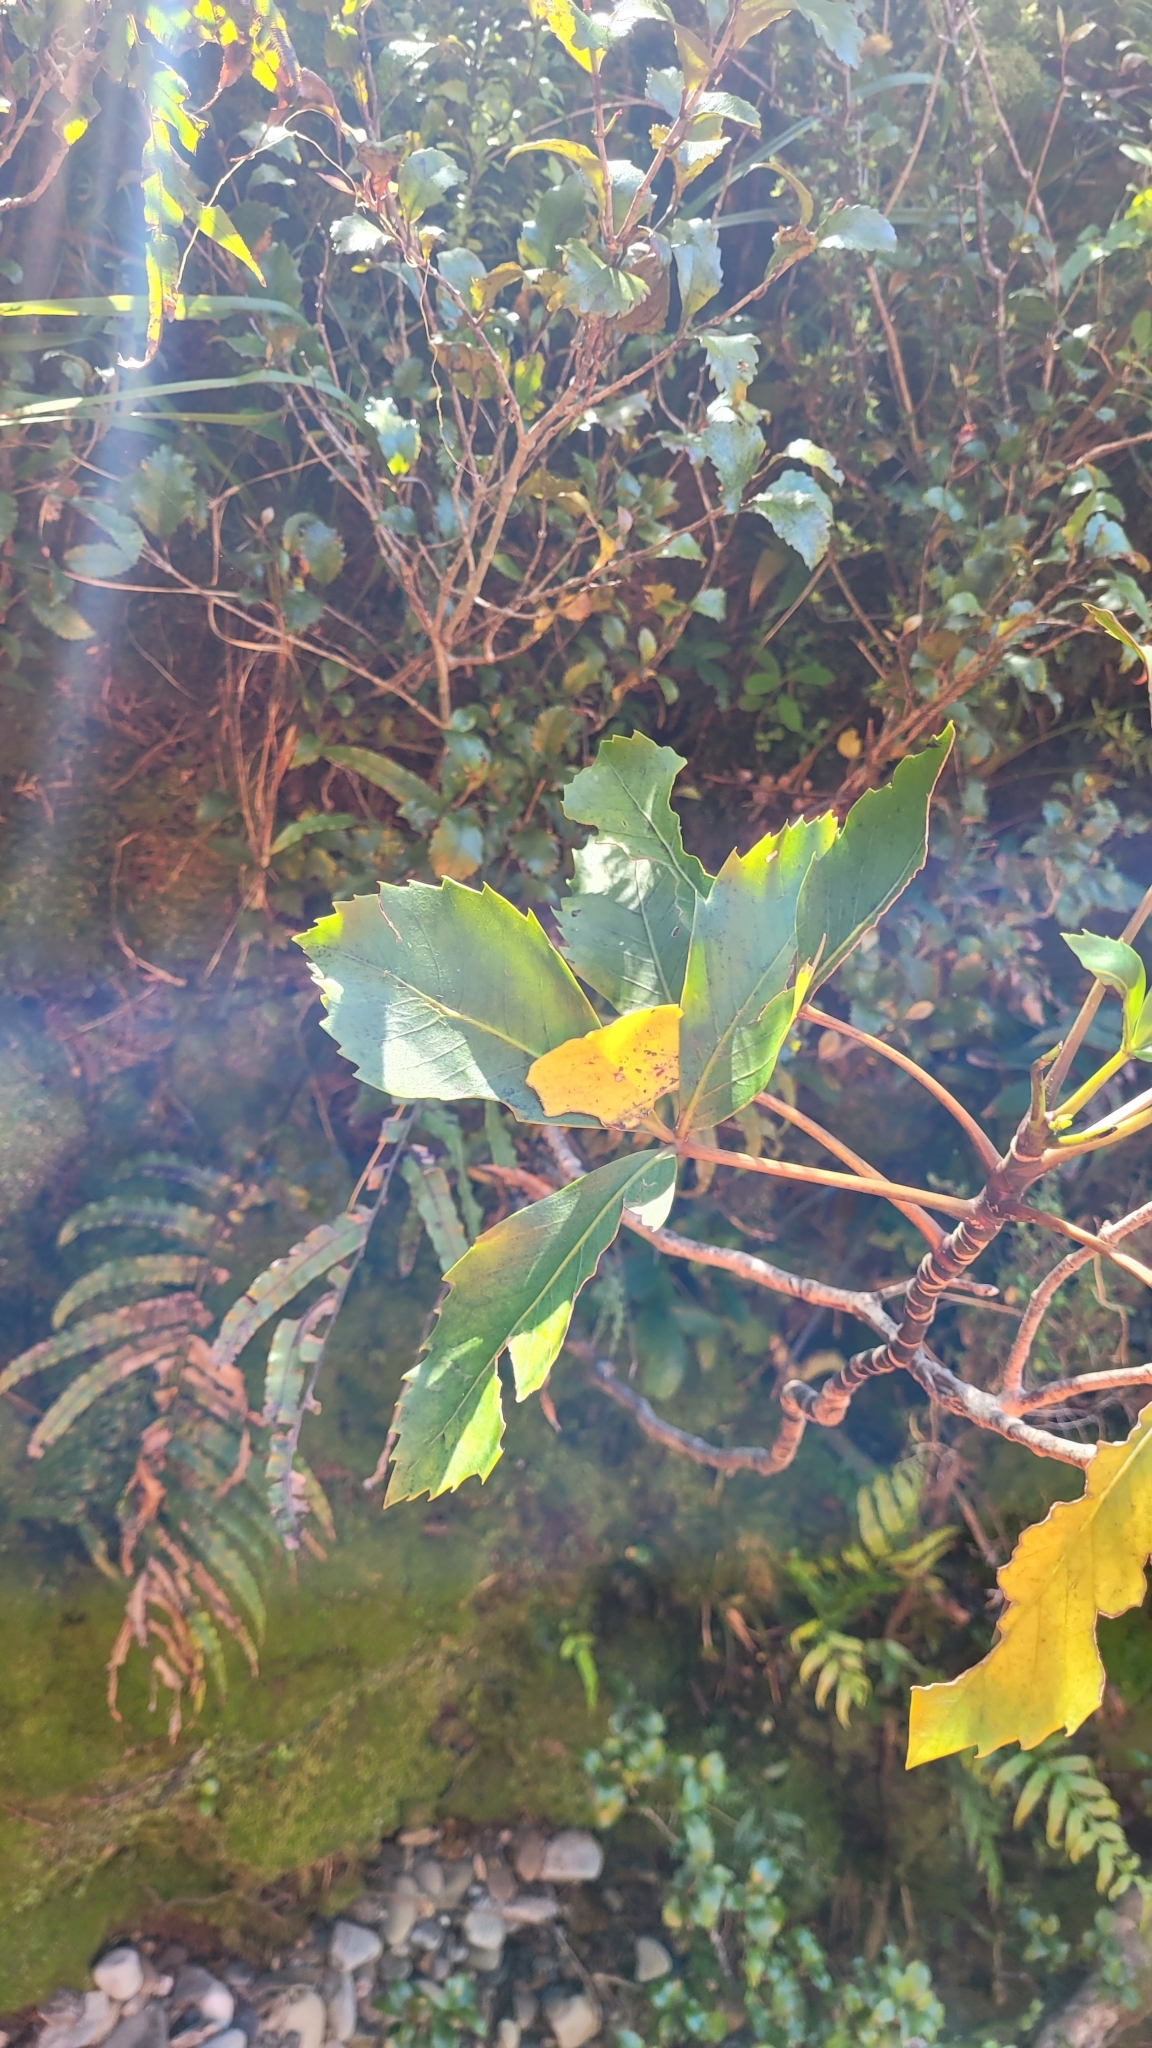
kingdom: Plantae
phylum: Tracheophyta
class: Magnoliopsida
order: Apiales
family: Araliaceae
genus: Neopanax
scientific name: Neopanax colensoi
